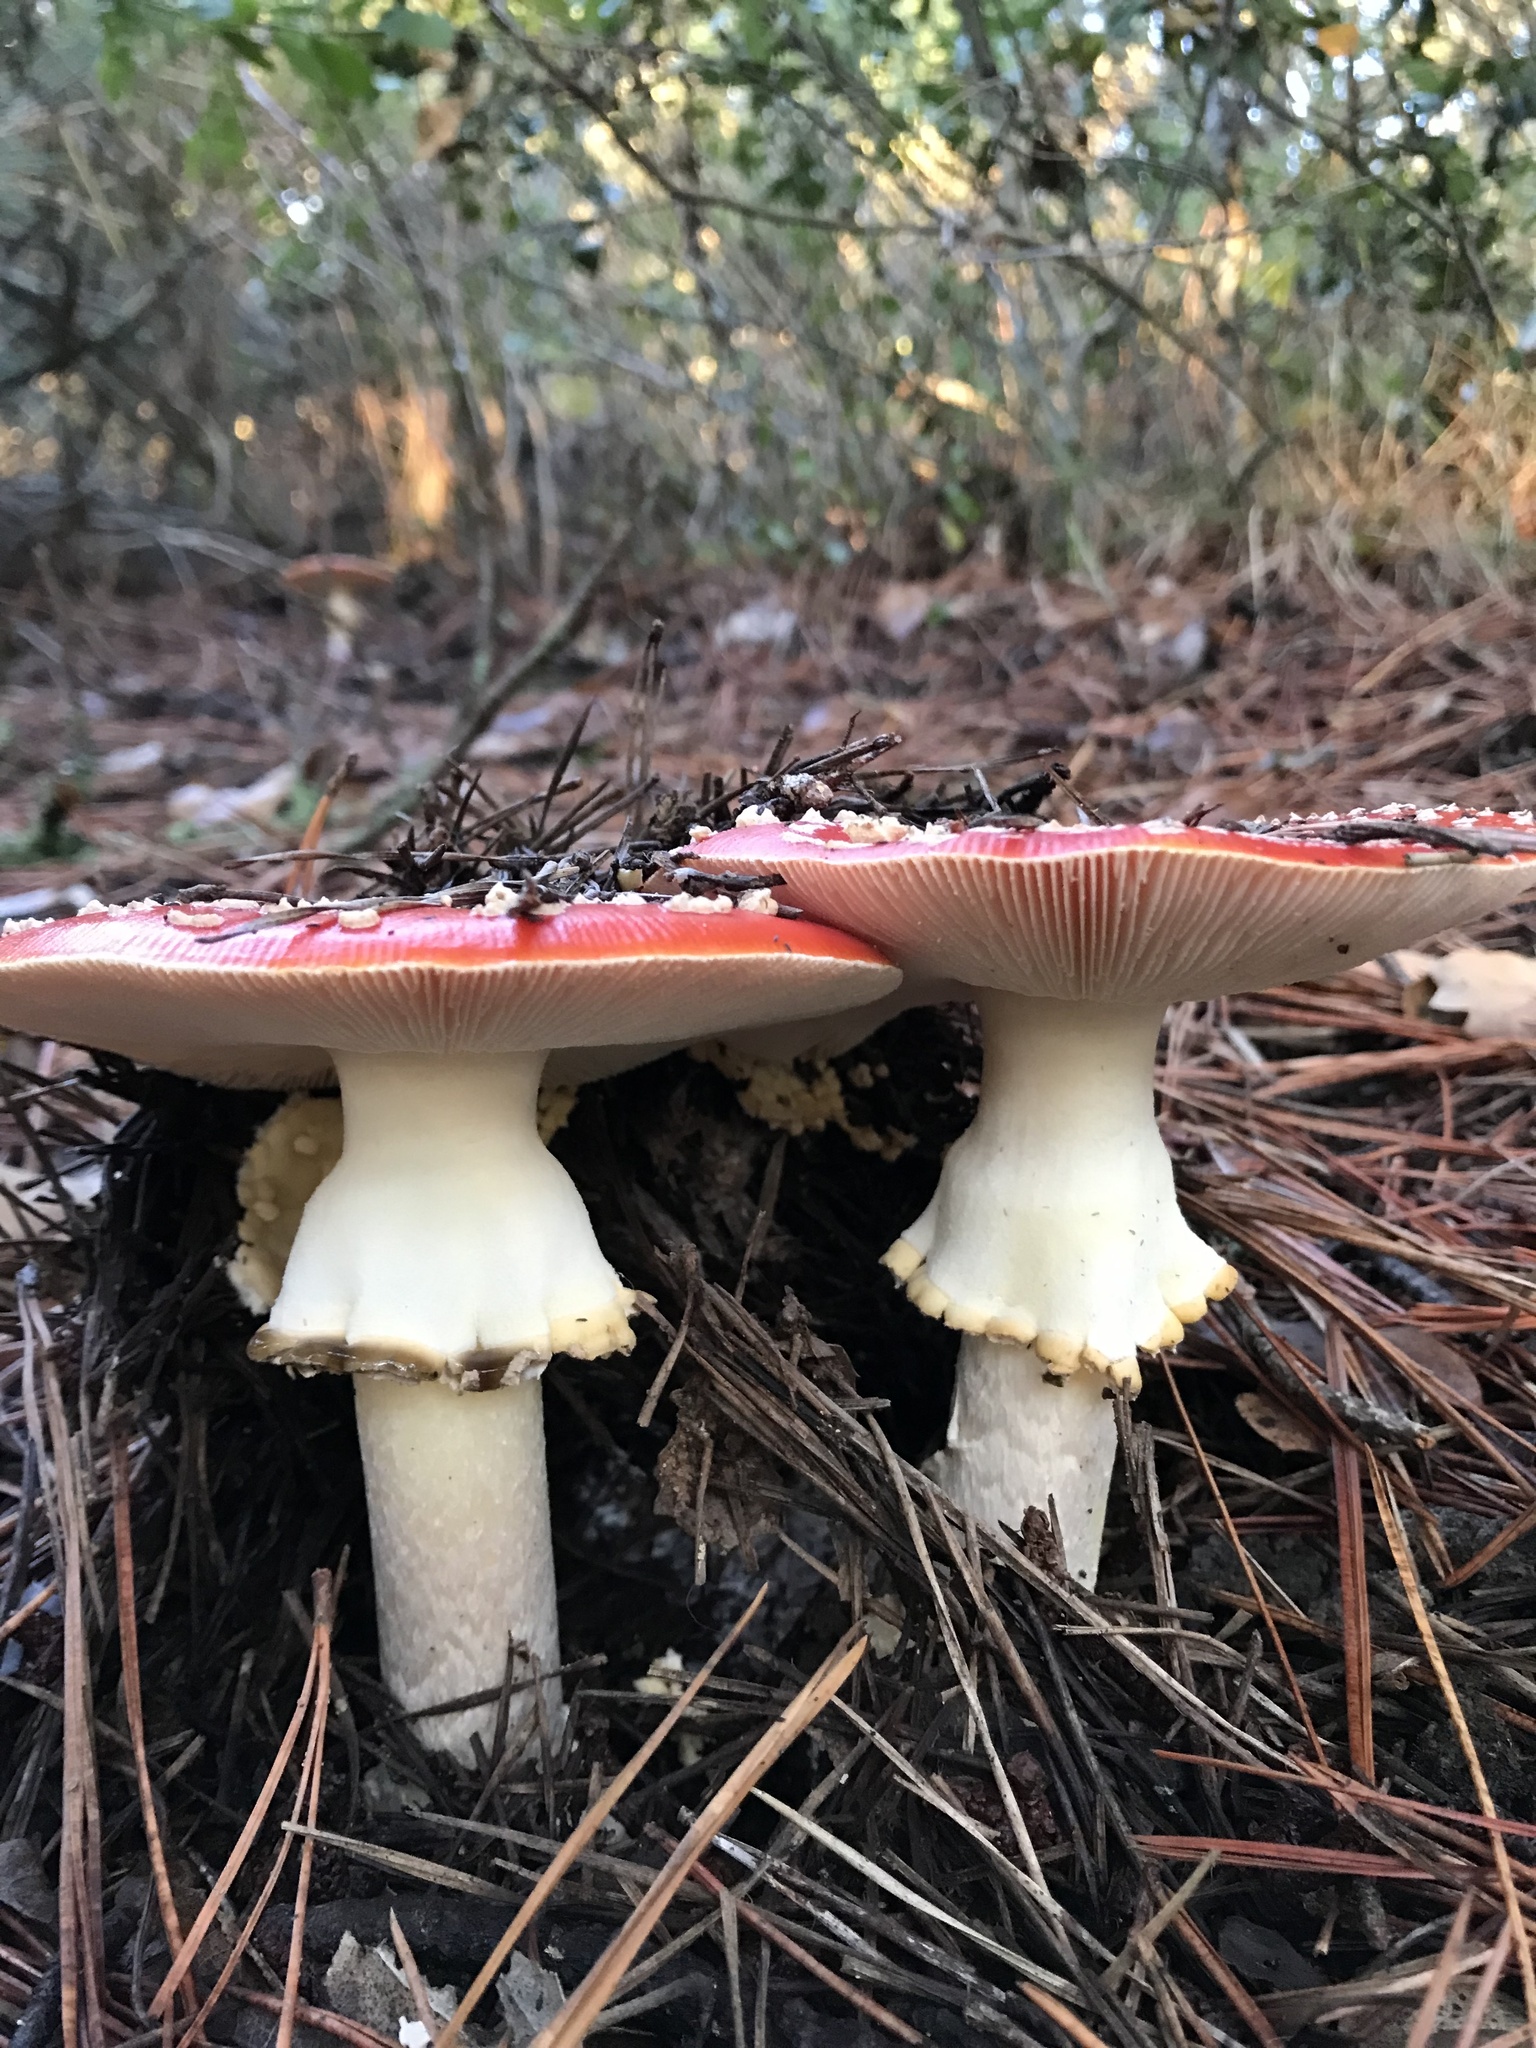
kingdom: Fungi
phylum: Basidiomycota
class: Agaricomycetes
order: Agaricales
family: Amanitaceae
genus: Amanita
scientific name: Amanita muscaria
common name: Fly agaric
